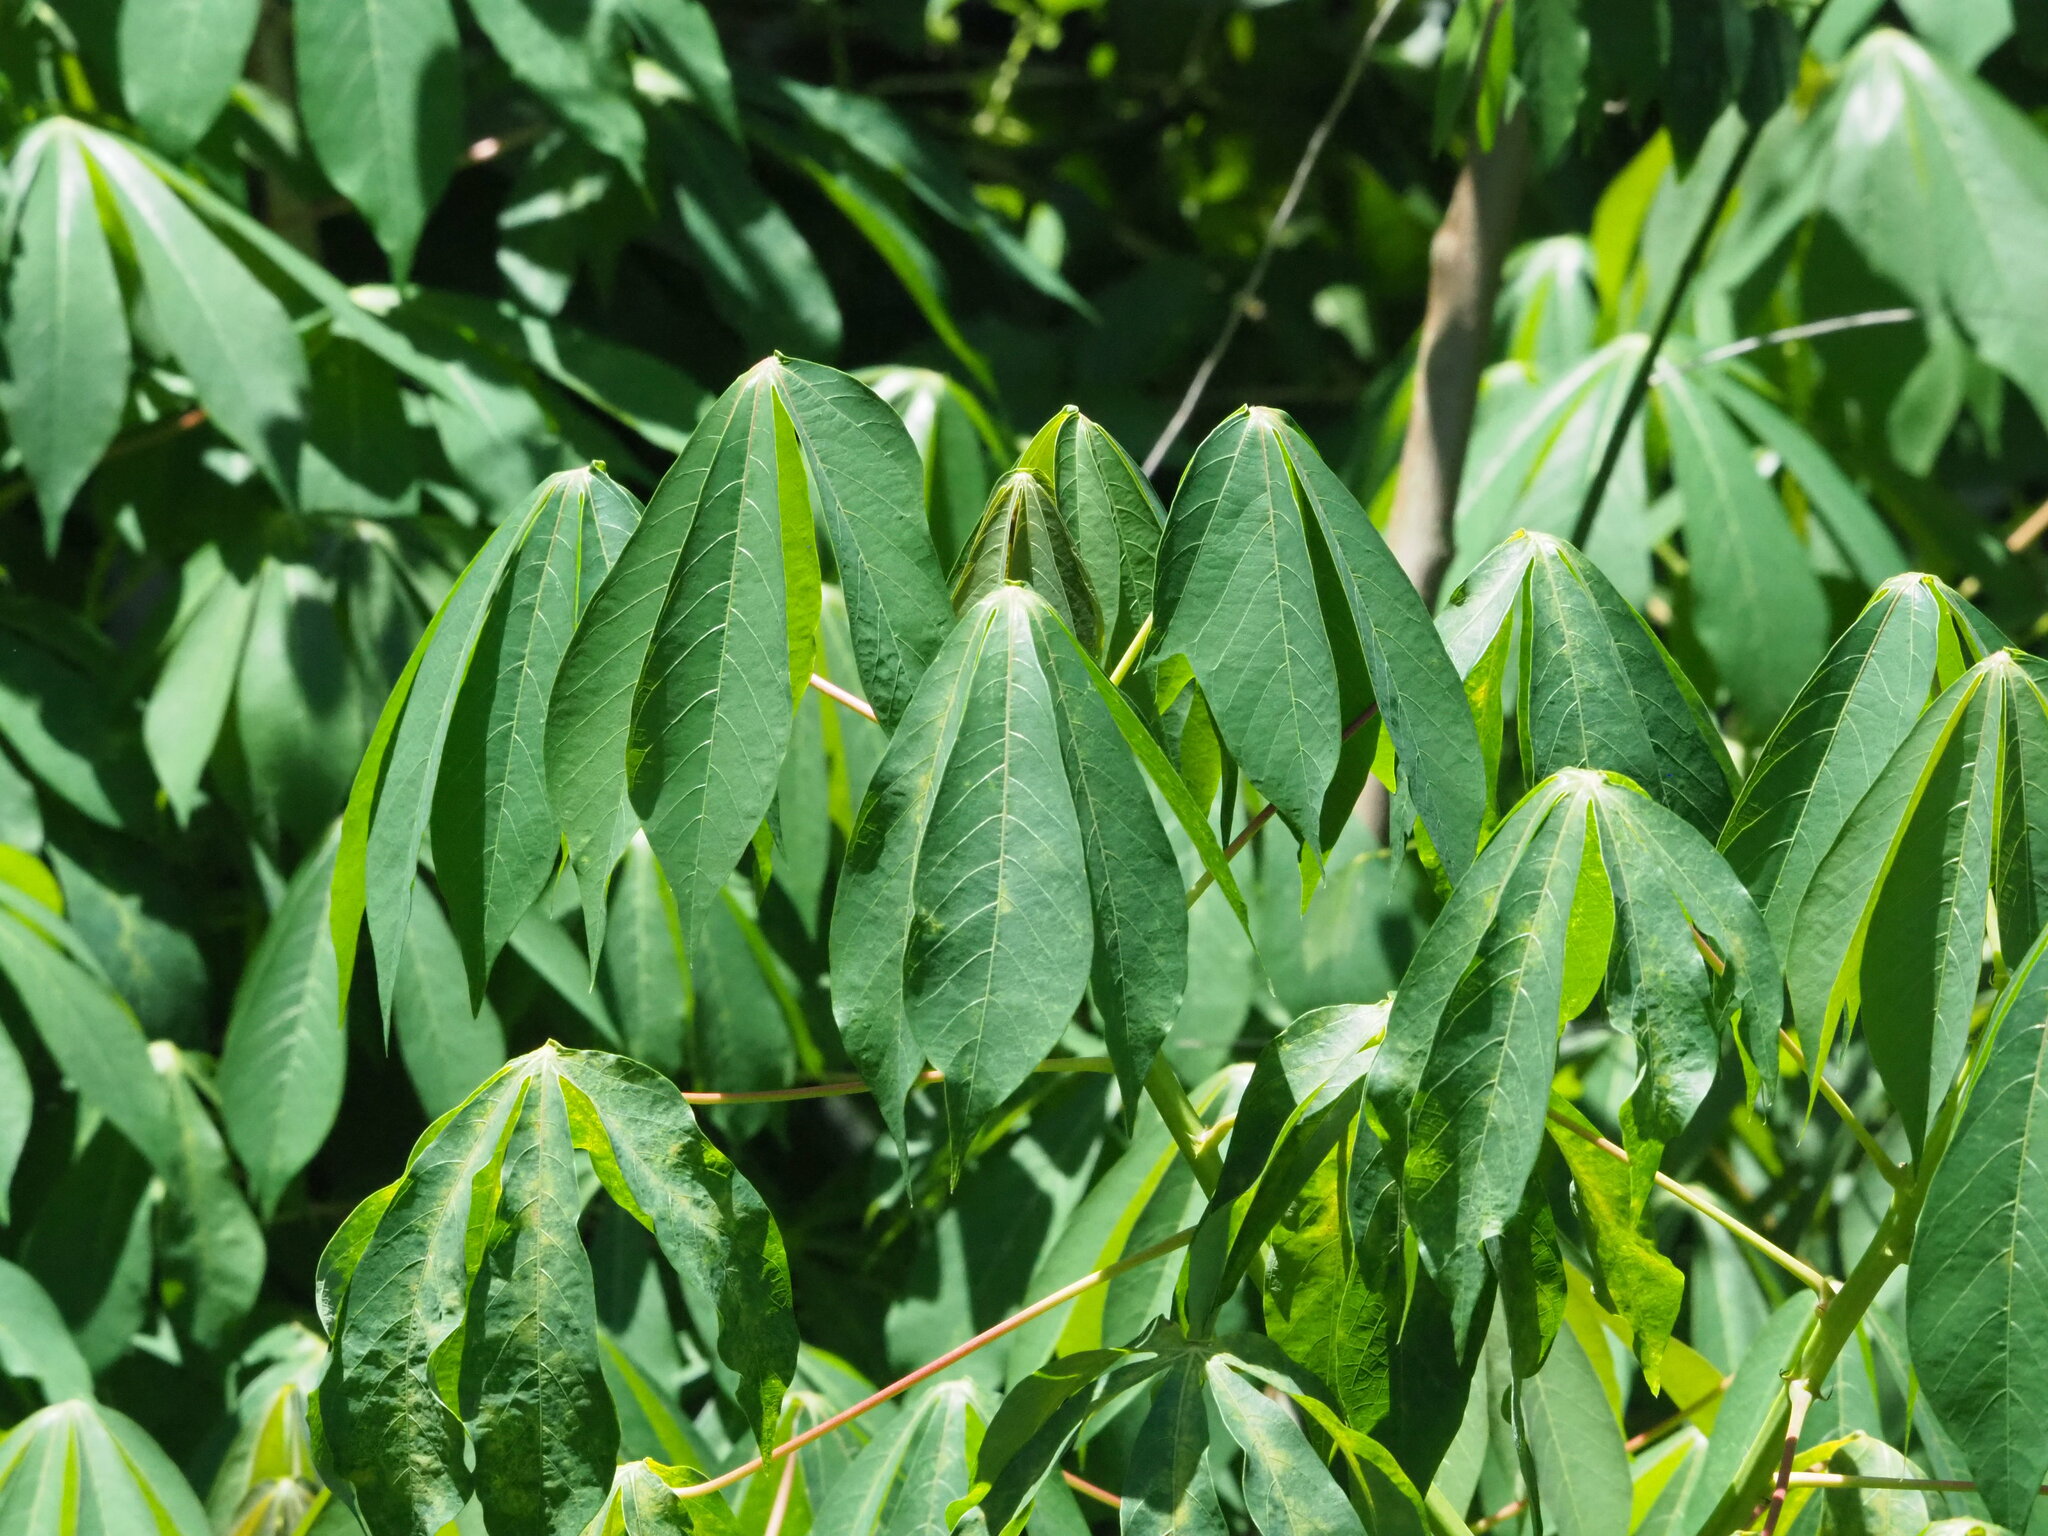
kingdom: Plantae
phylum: Tracheophyta
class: Magnoliopsida
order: Malpighiales
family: Euphorbiaceae
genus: Manihot
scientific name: Manihot esculenta
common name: Cassava
